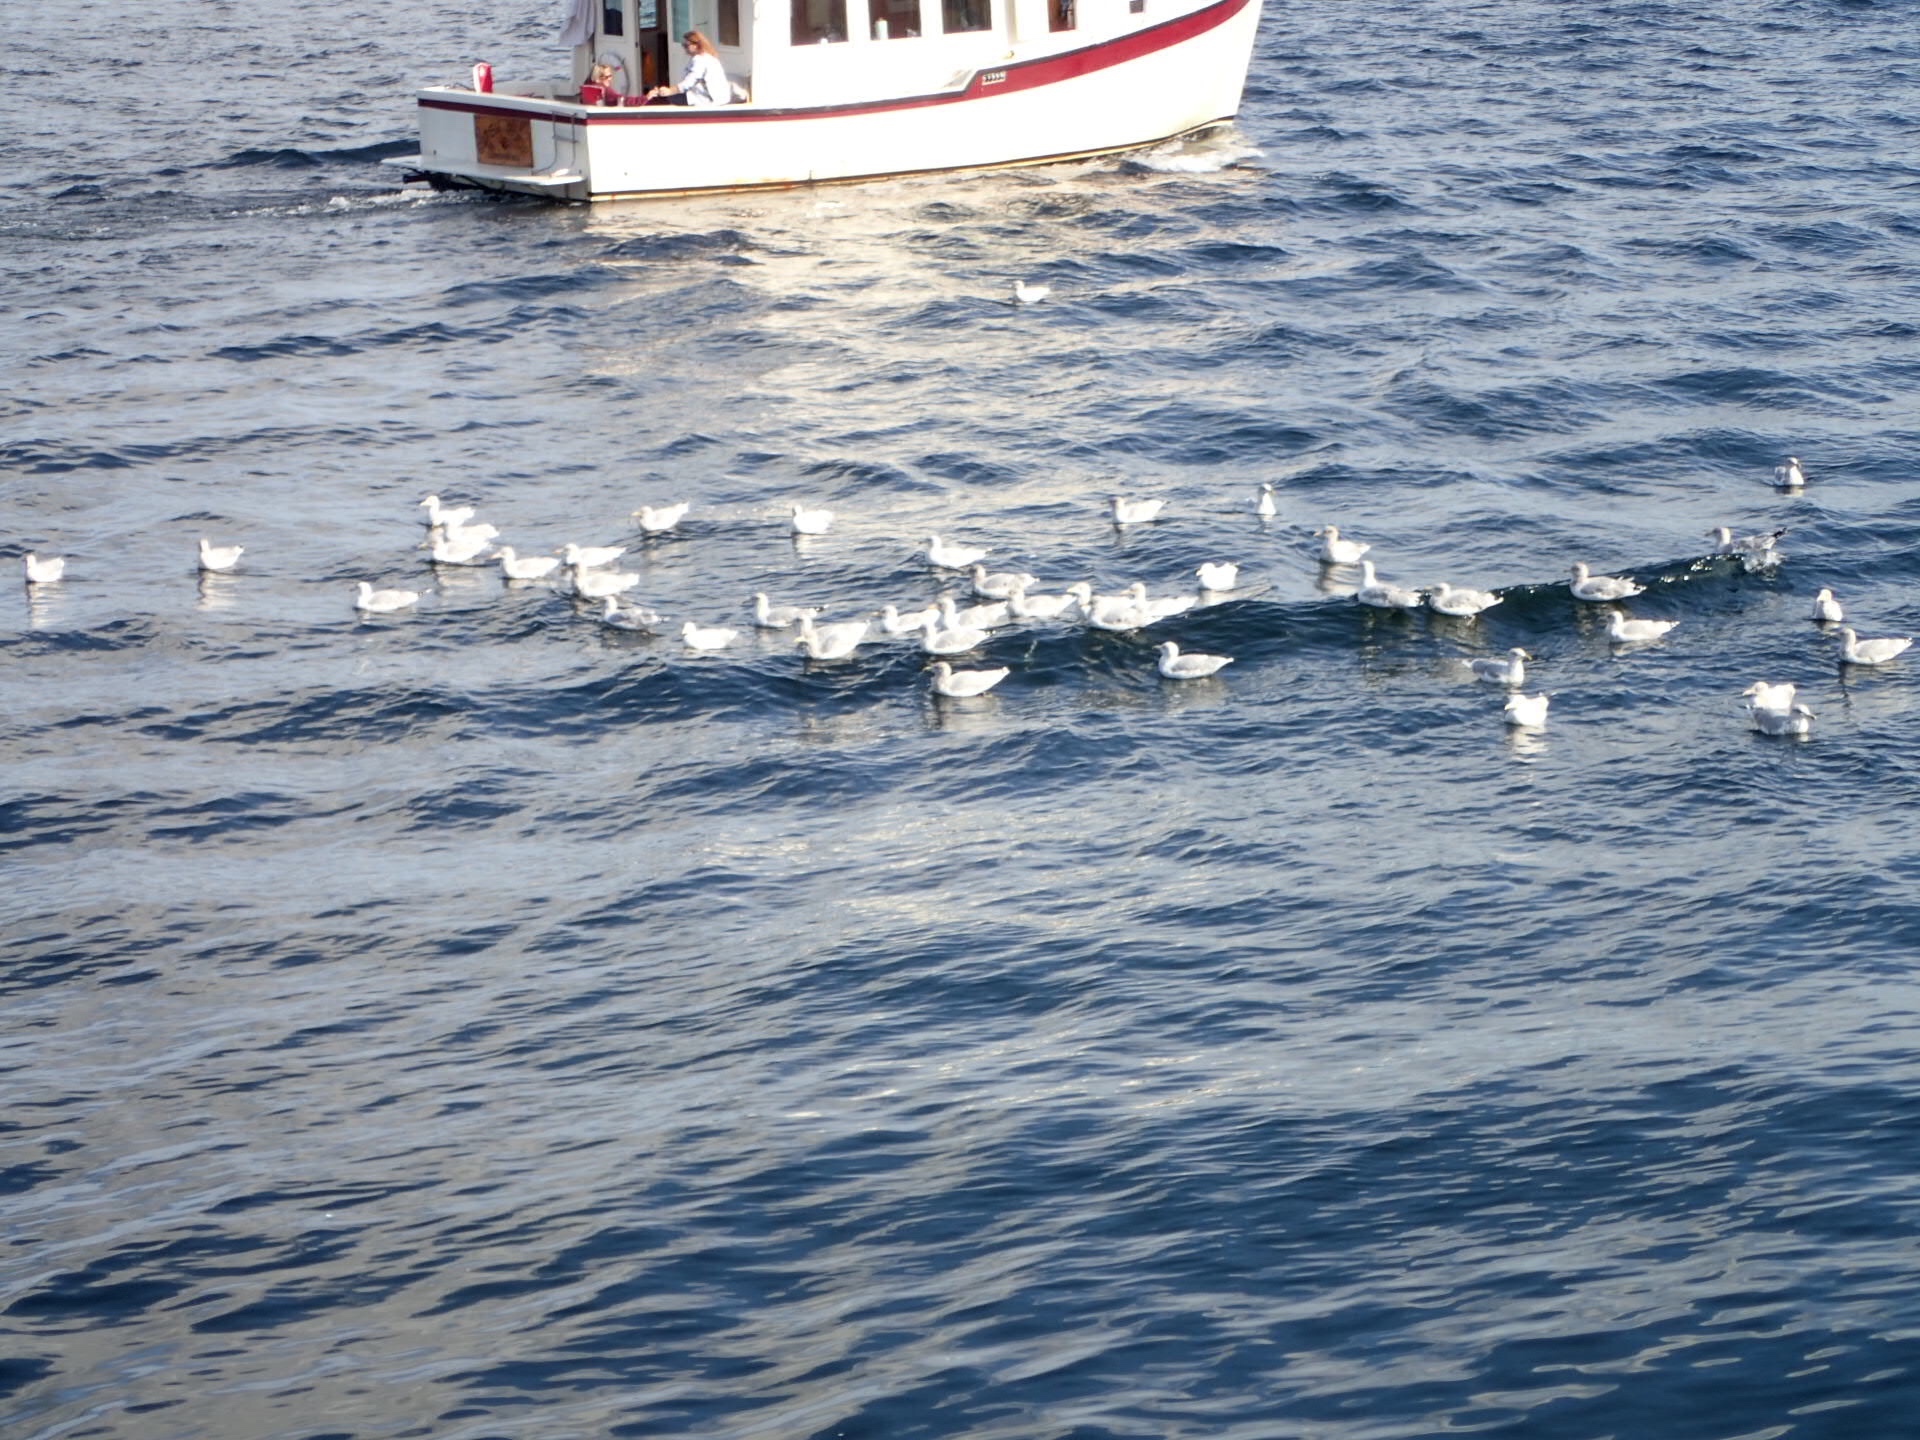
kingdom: Animalia
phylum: Chordata
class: Aves
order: Charadriiformes
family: Laridae
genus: Larus
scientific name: Larus argentatus
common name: Herring gull
